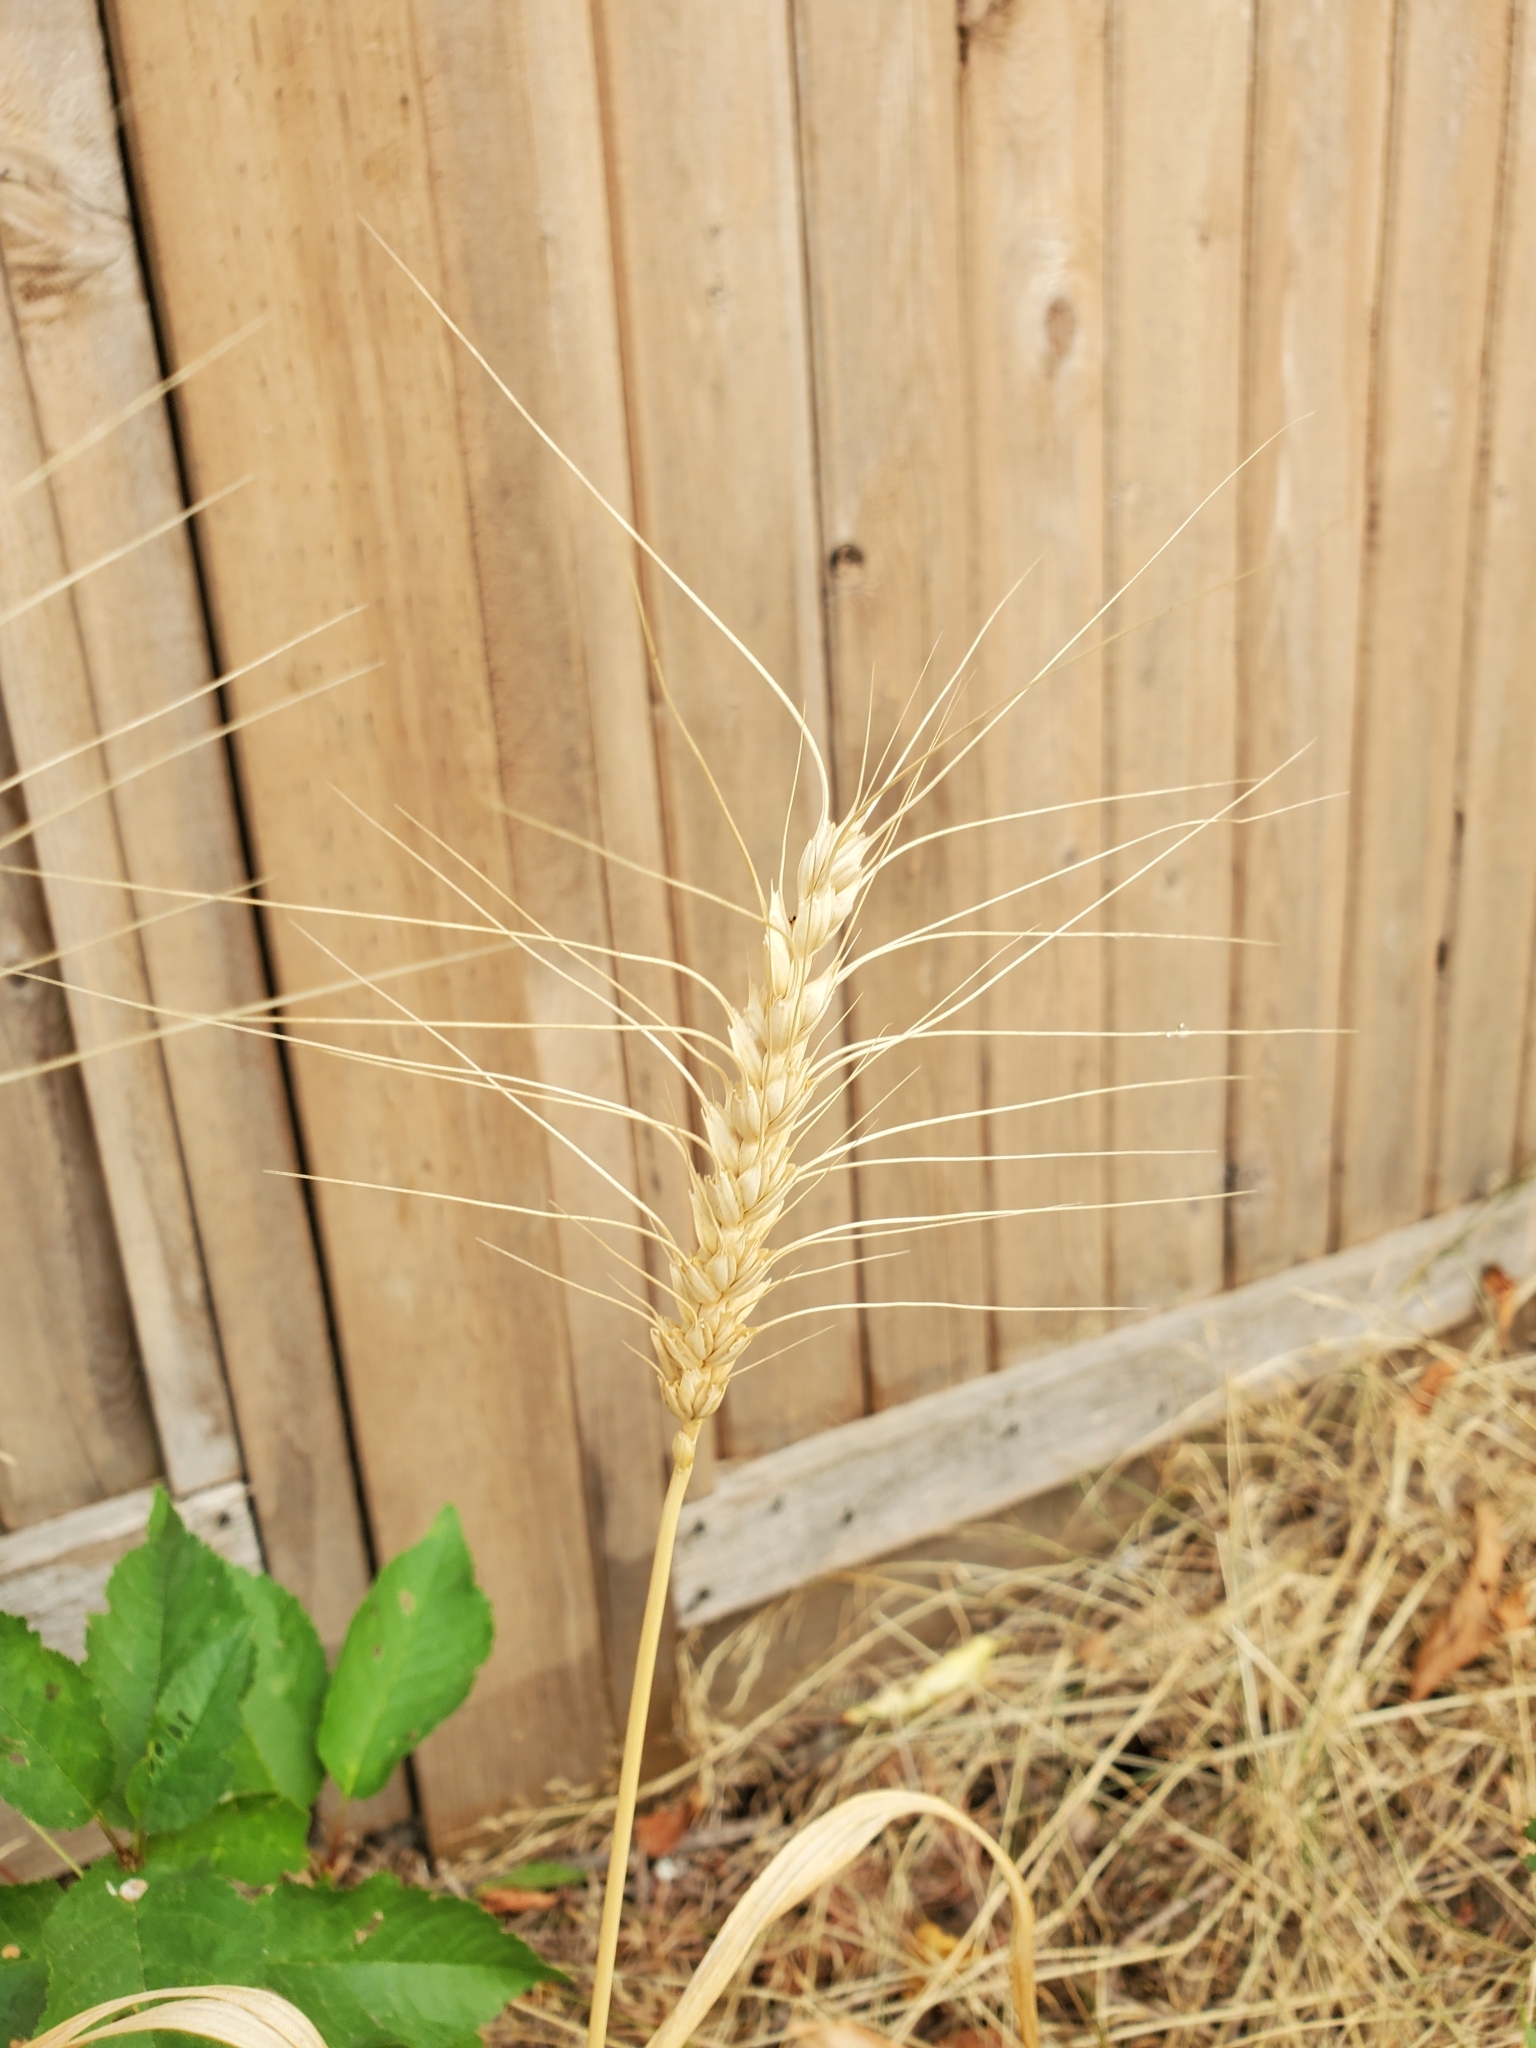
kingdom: Plantae
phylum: Tracheophyta
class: Liliopsida
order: Poales
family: Poaceae
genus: Triticum
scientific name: Triticum aestivum
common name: Common wheat
